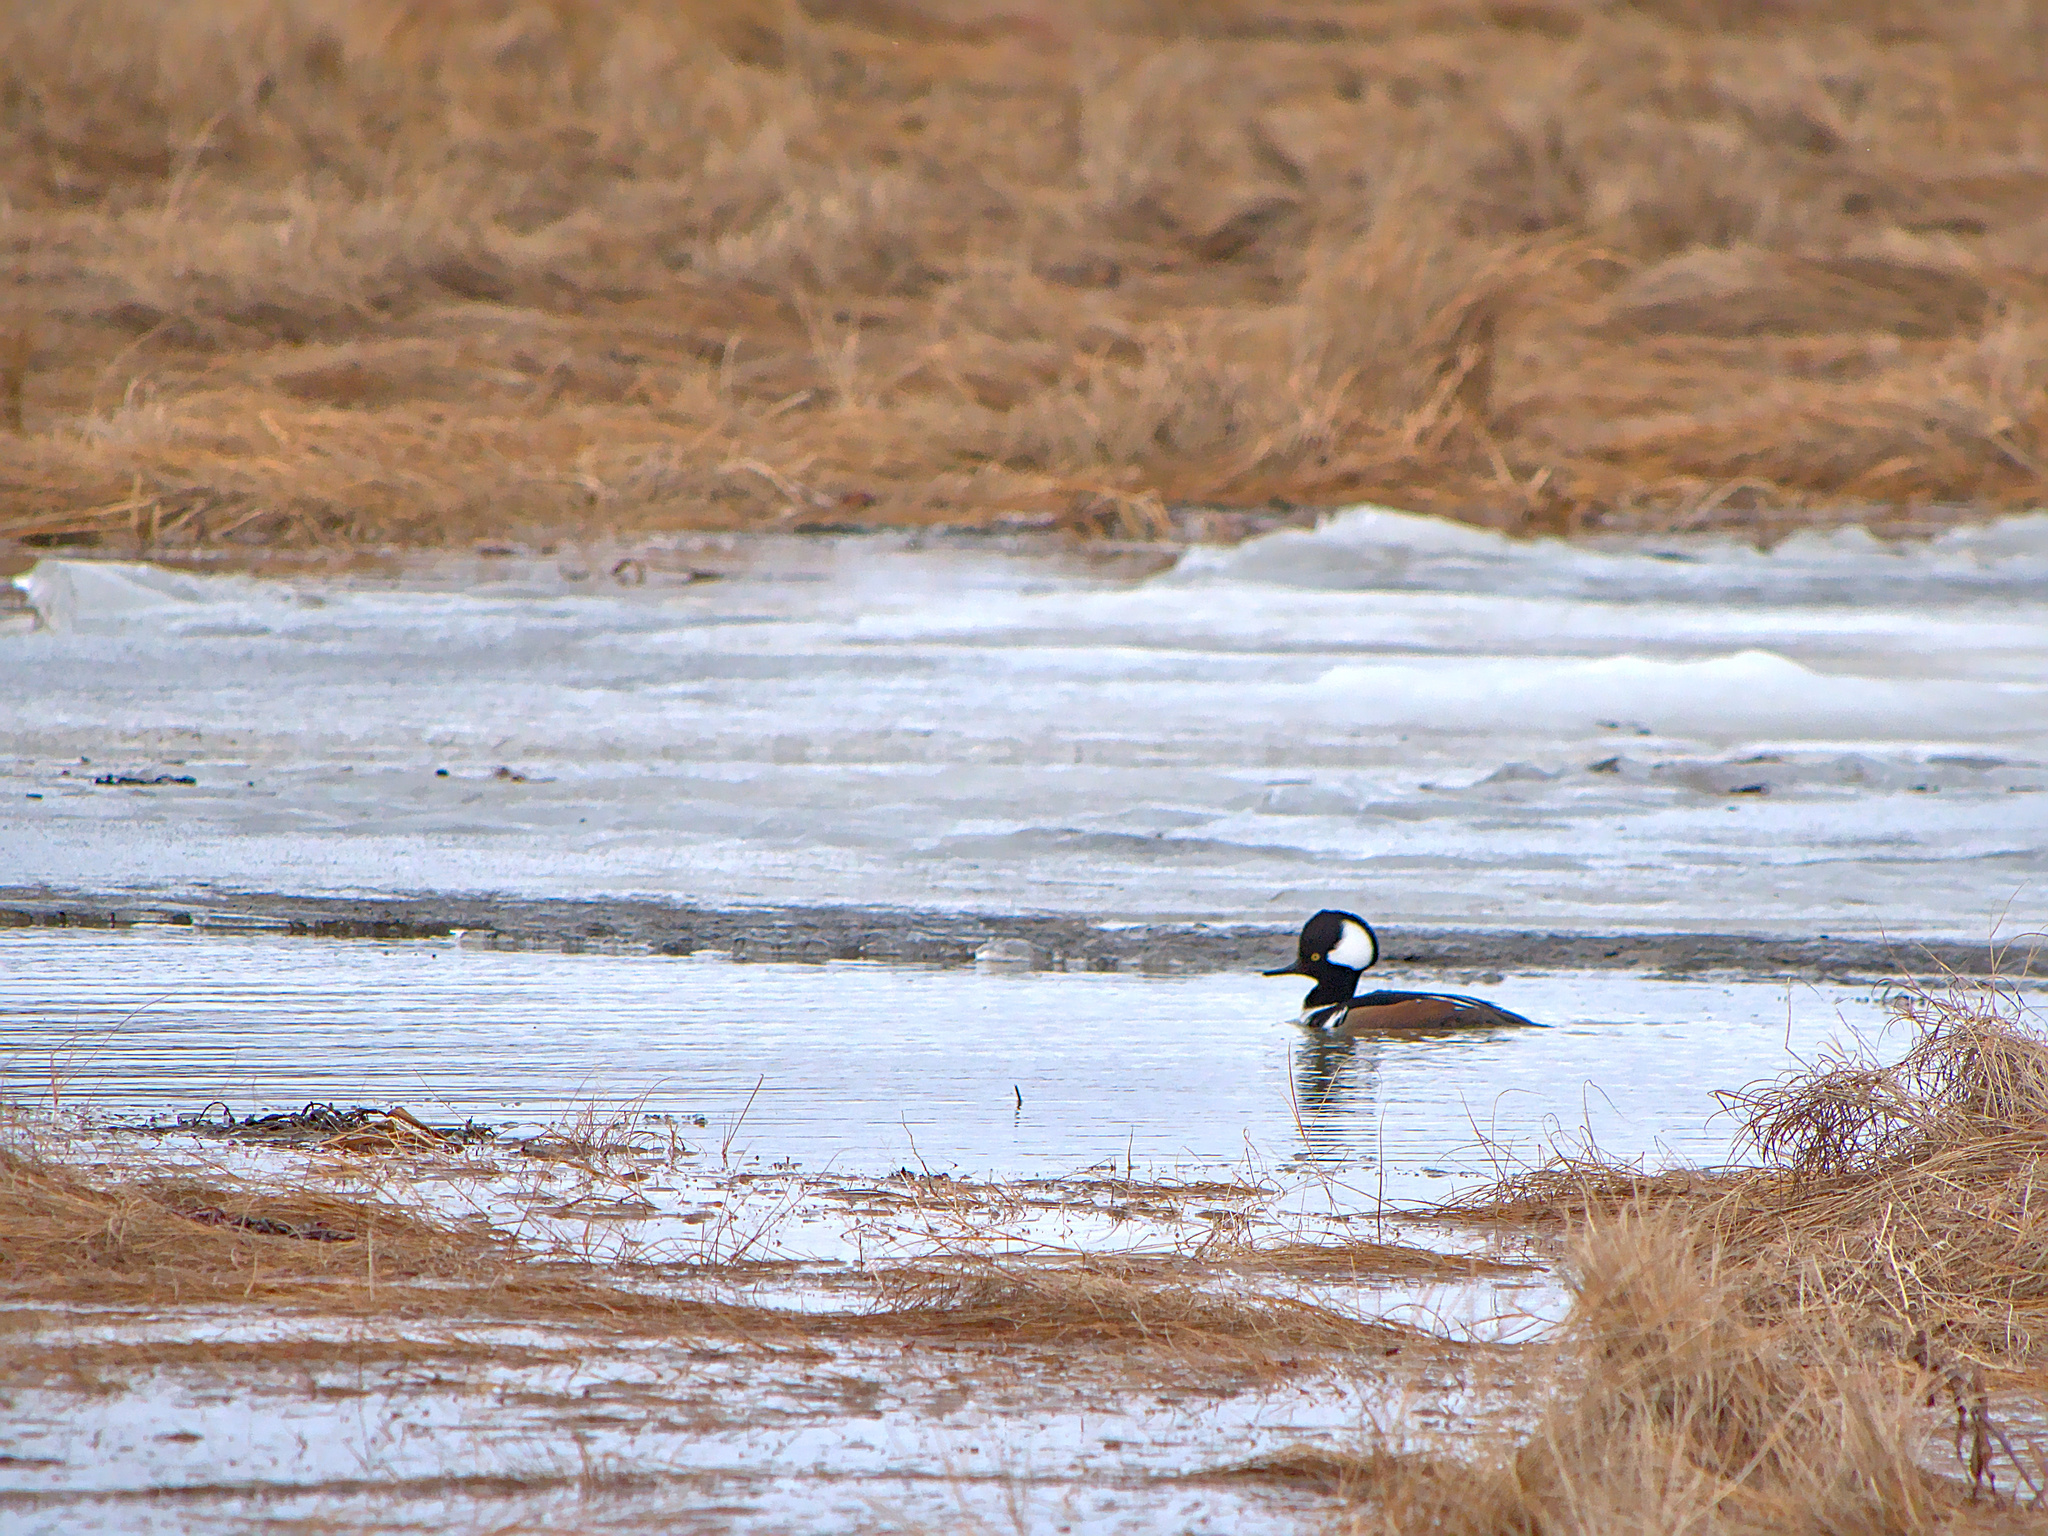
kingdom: Animalia
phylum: Chordata
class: Aves
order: Anseriformes
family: Anatidae
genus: Lophodytes
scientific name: Lophodytes cucullatus
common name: Hooded merganser
